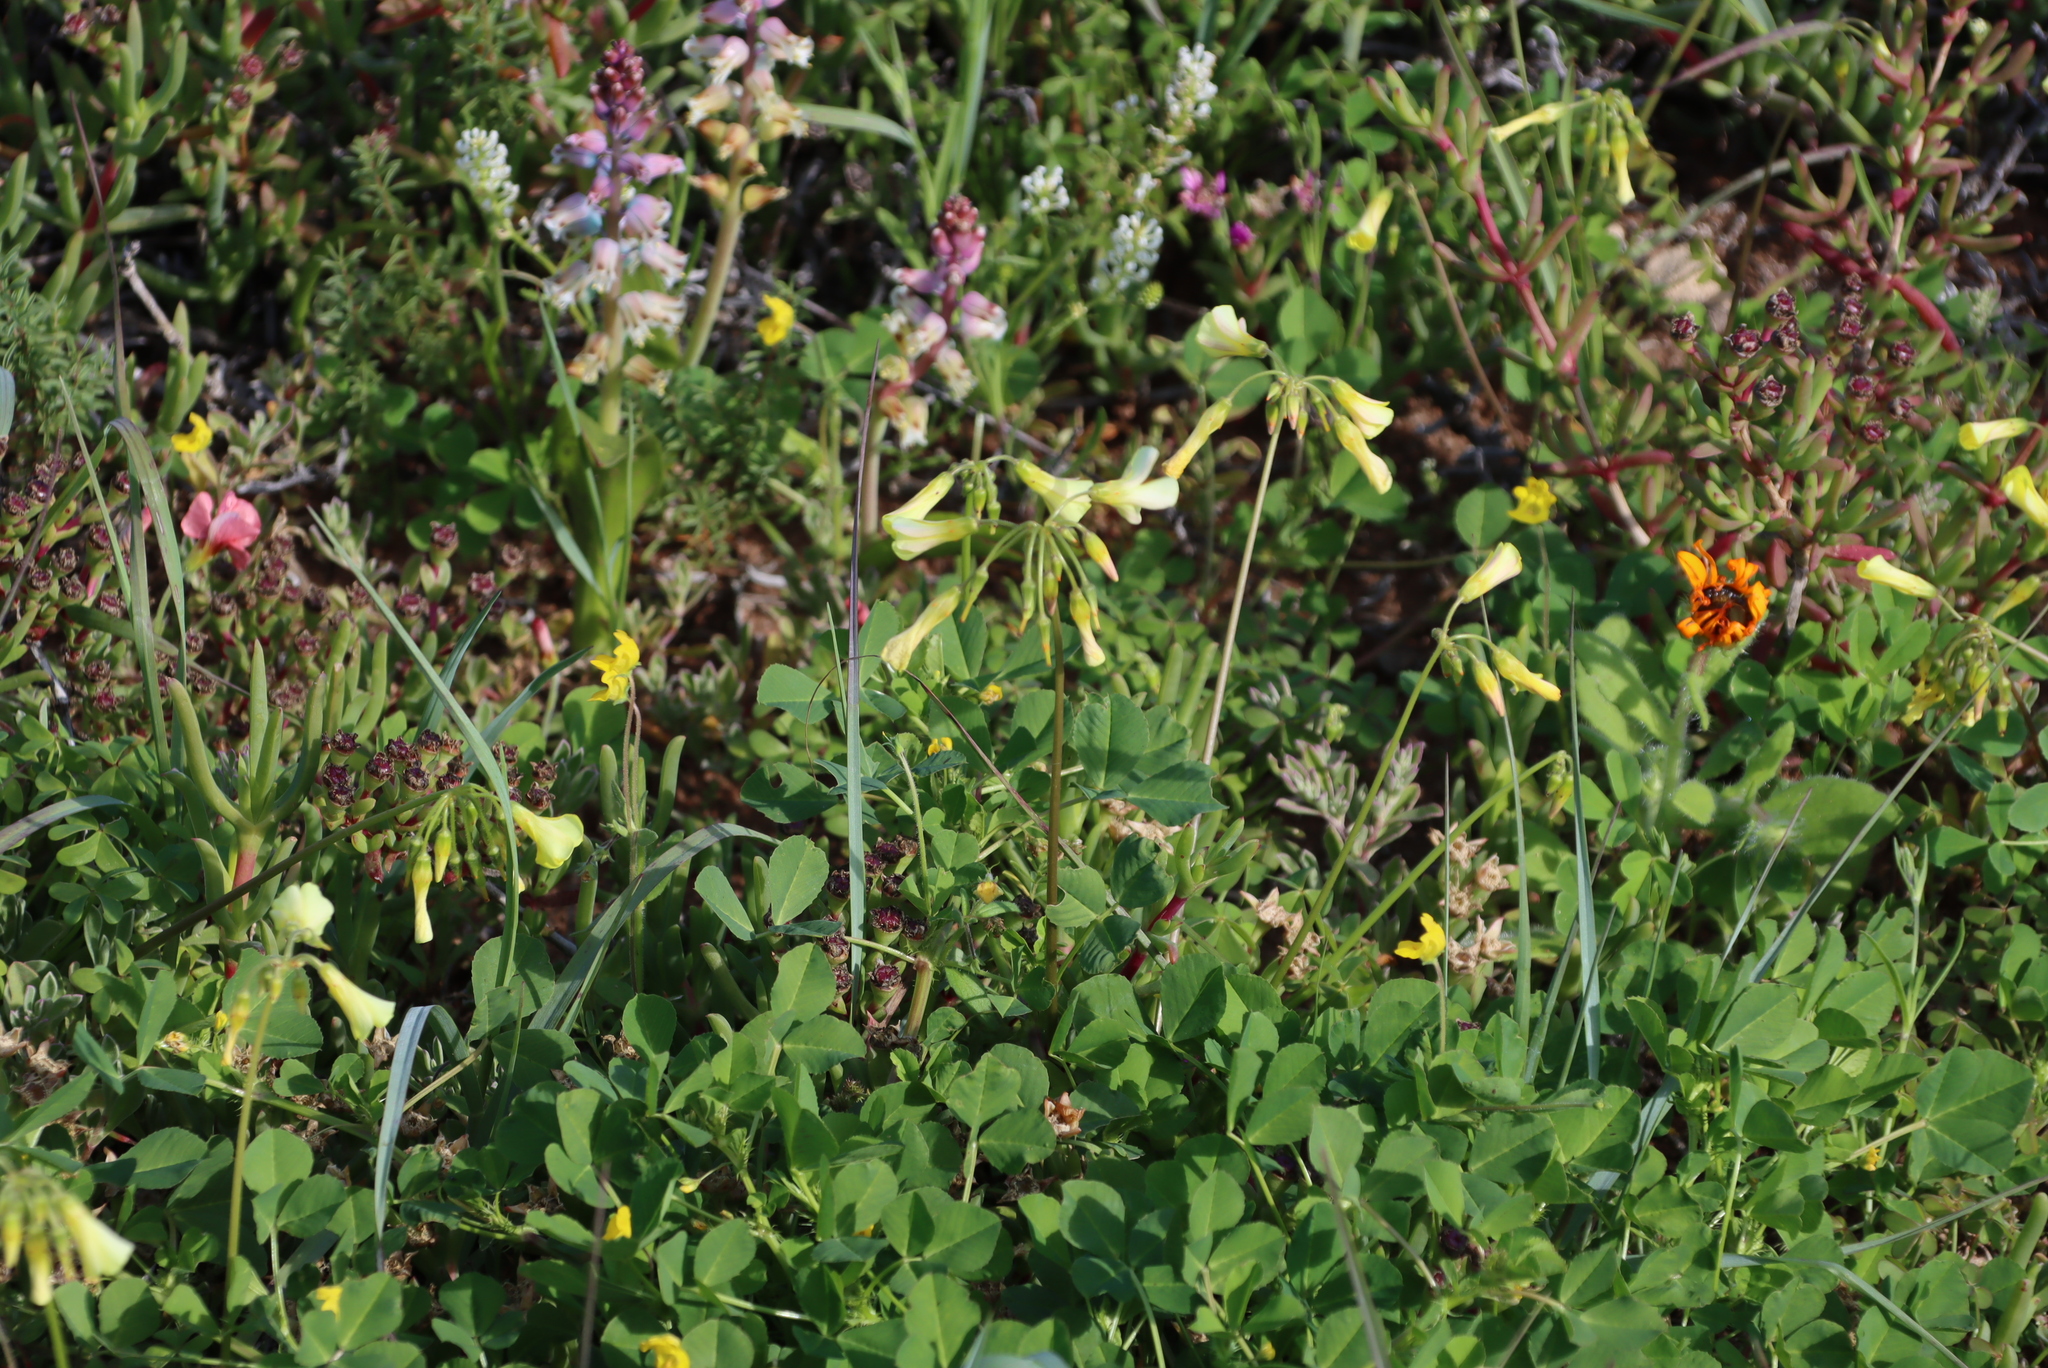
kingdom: Plantae
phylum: Tracheophyta
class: Magnoliopsida
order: Oxalidales
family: Oxalidaceae
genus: Oxalis
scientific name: Oxalis pes-caprae
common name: Bermuda-buttercup
